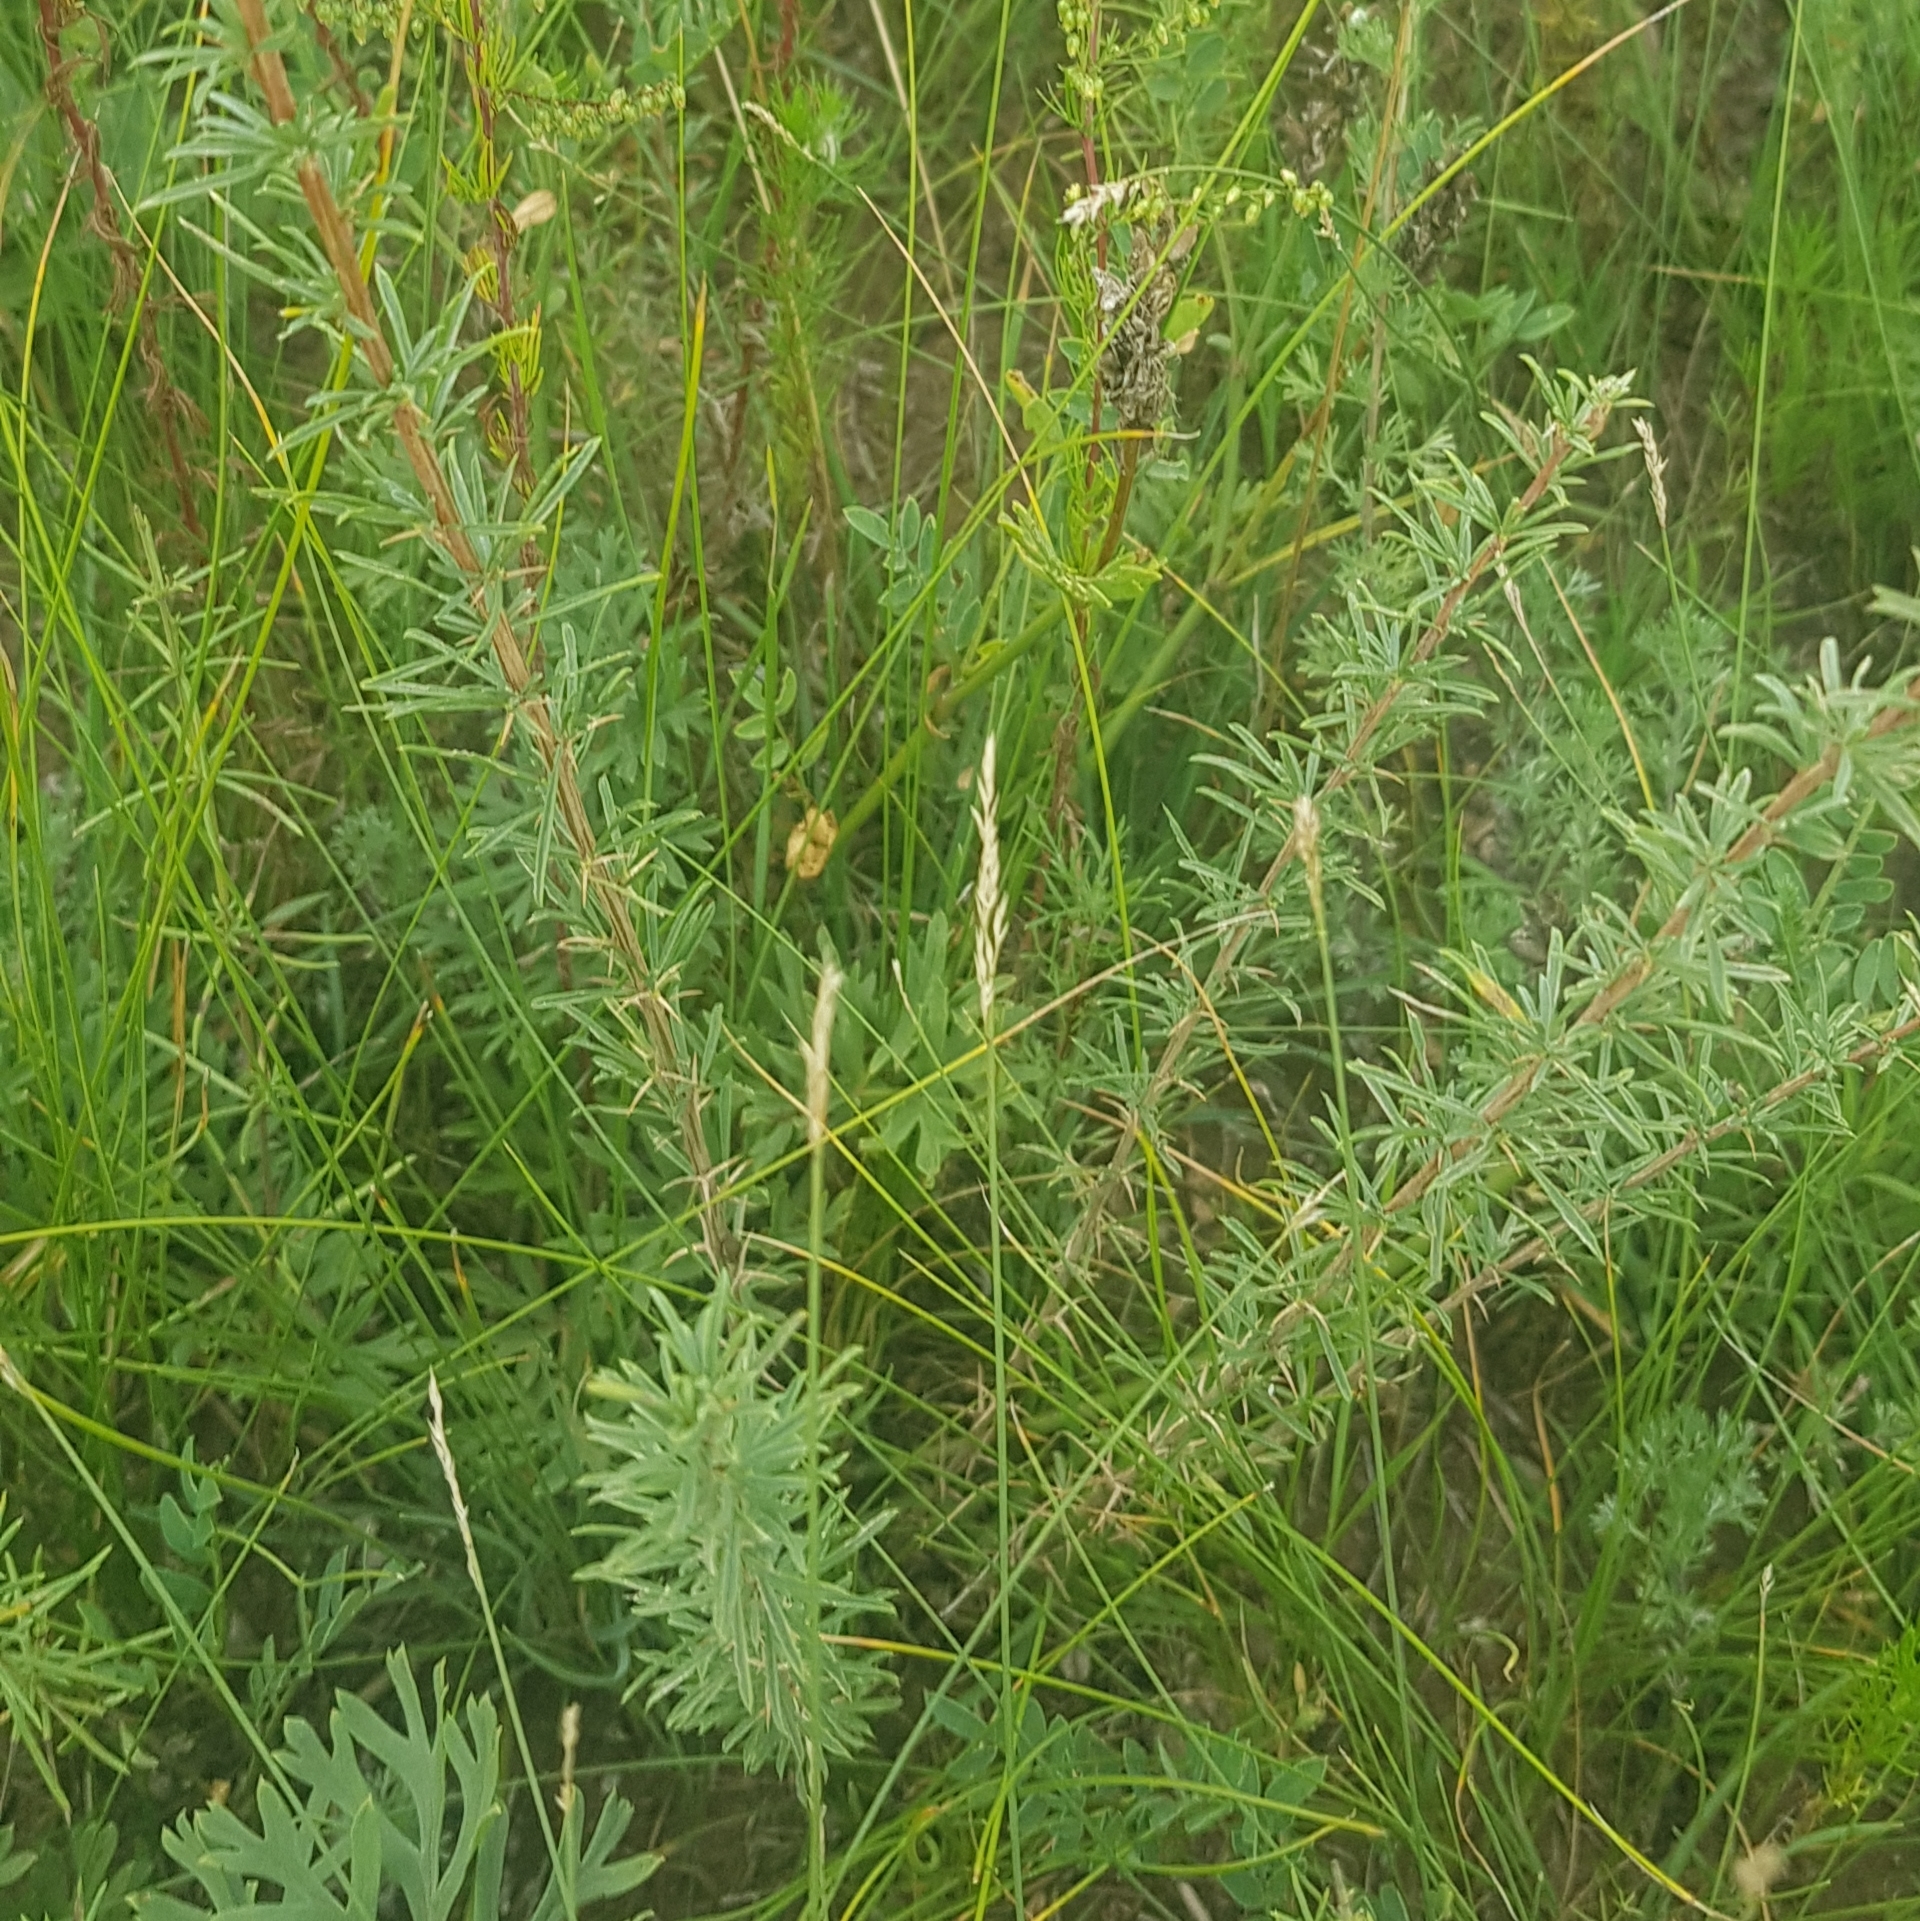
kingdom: Plantae
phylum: Tracheophyta
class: Magnoliopsida
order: Fabales
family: Fabaceae
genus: Caragana
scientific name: Caragana stenophylla
